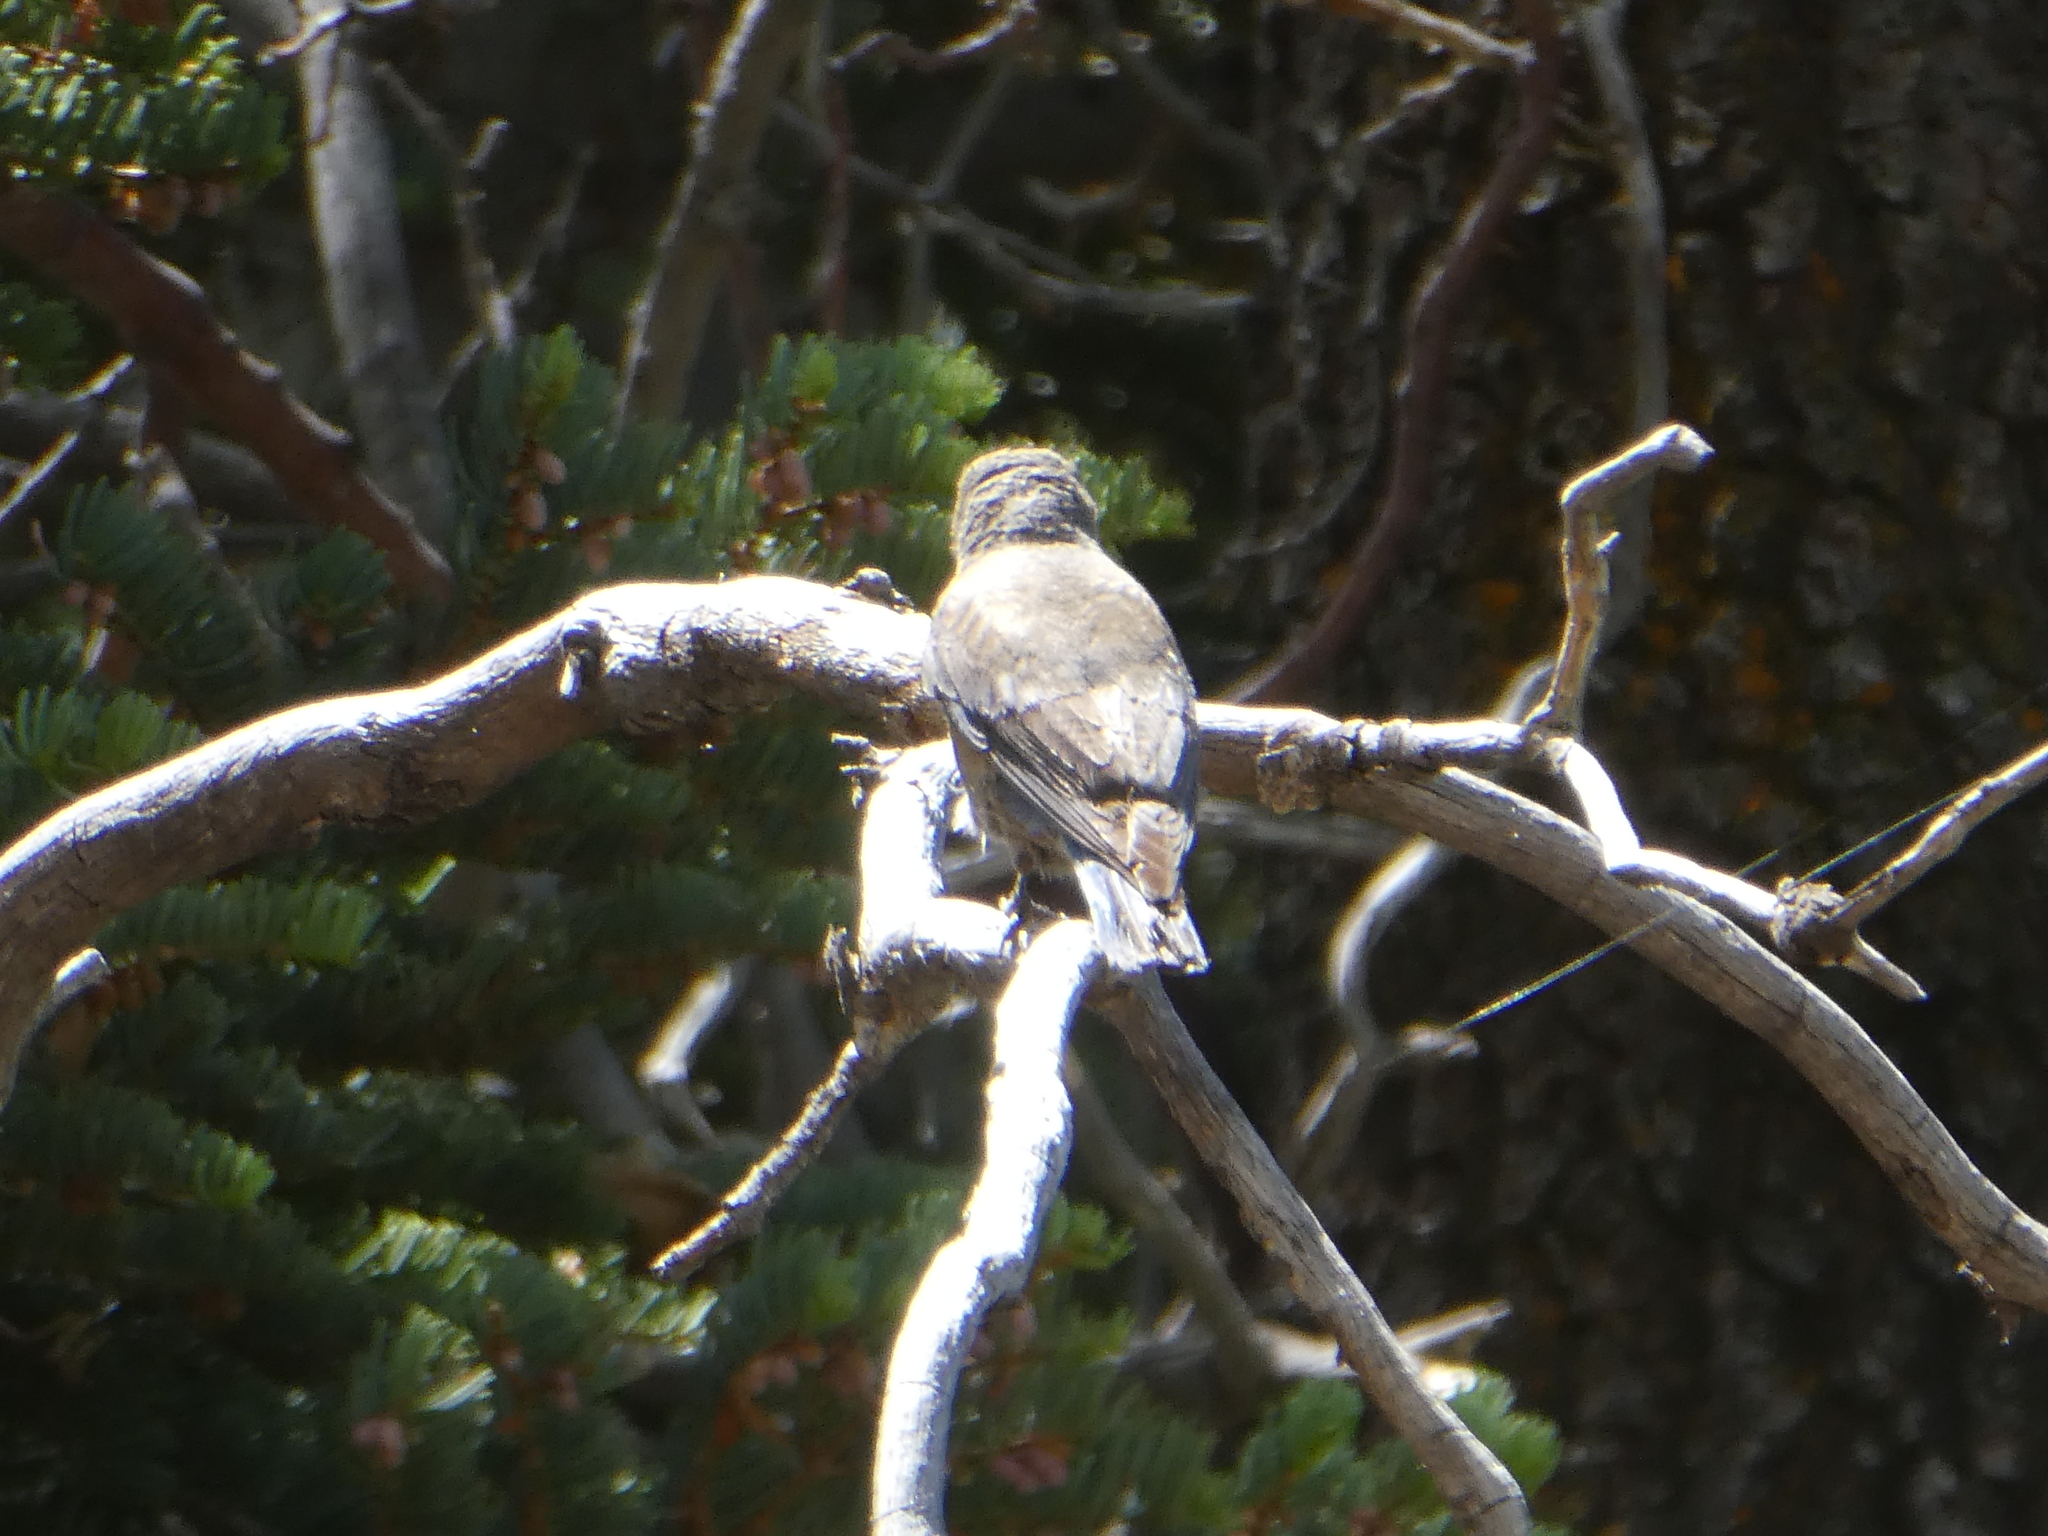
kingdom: Animalia
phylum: Chordata
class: Aves
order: Passeriformes
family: Turdidae
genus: Sialia
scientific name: Sialia mexicana
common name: Western bluebird
